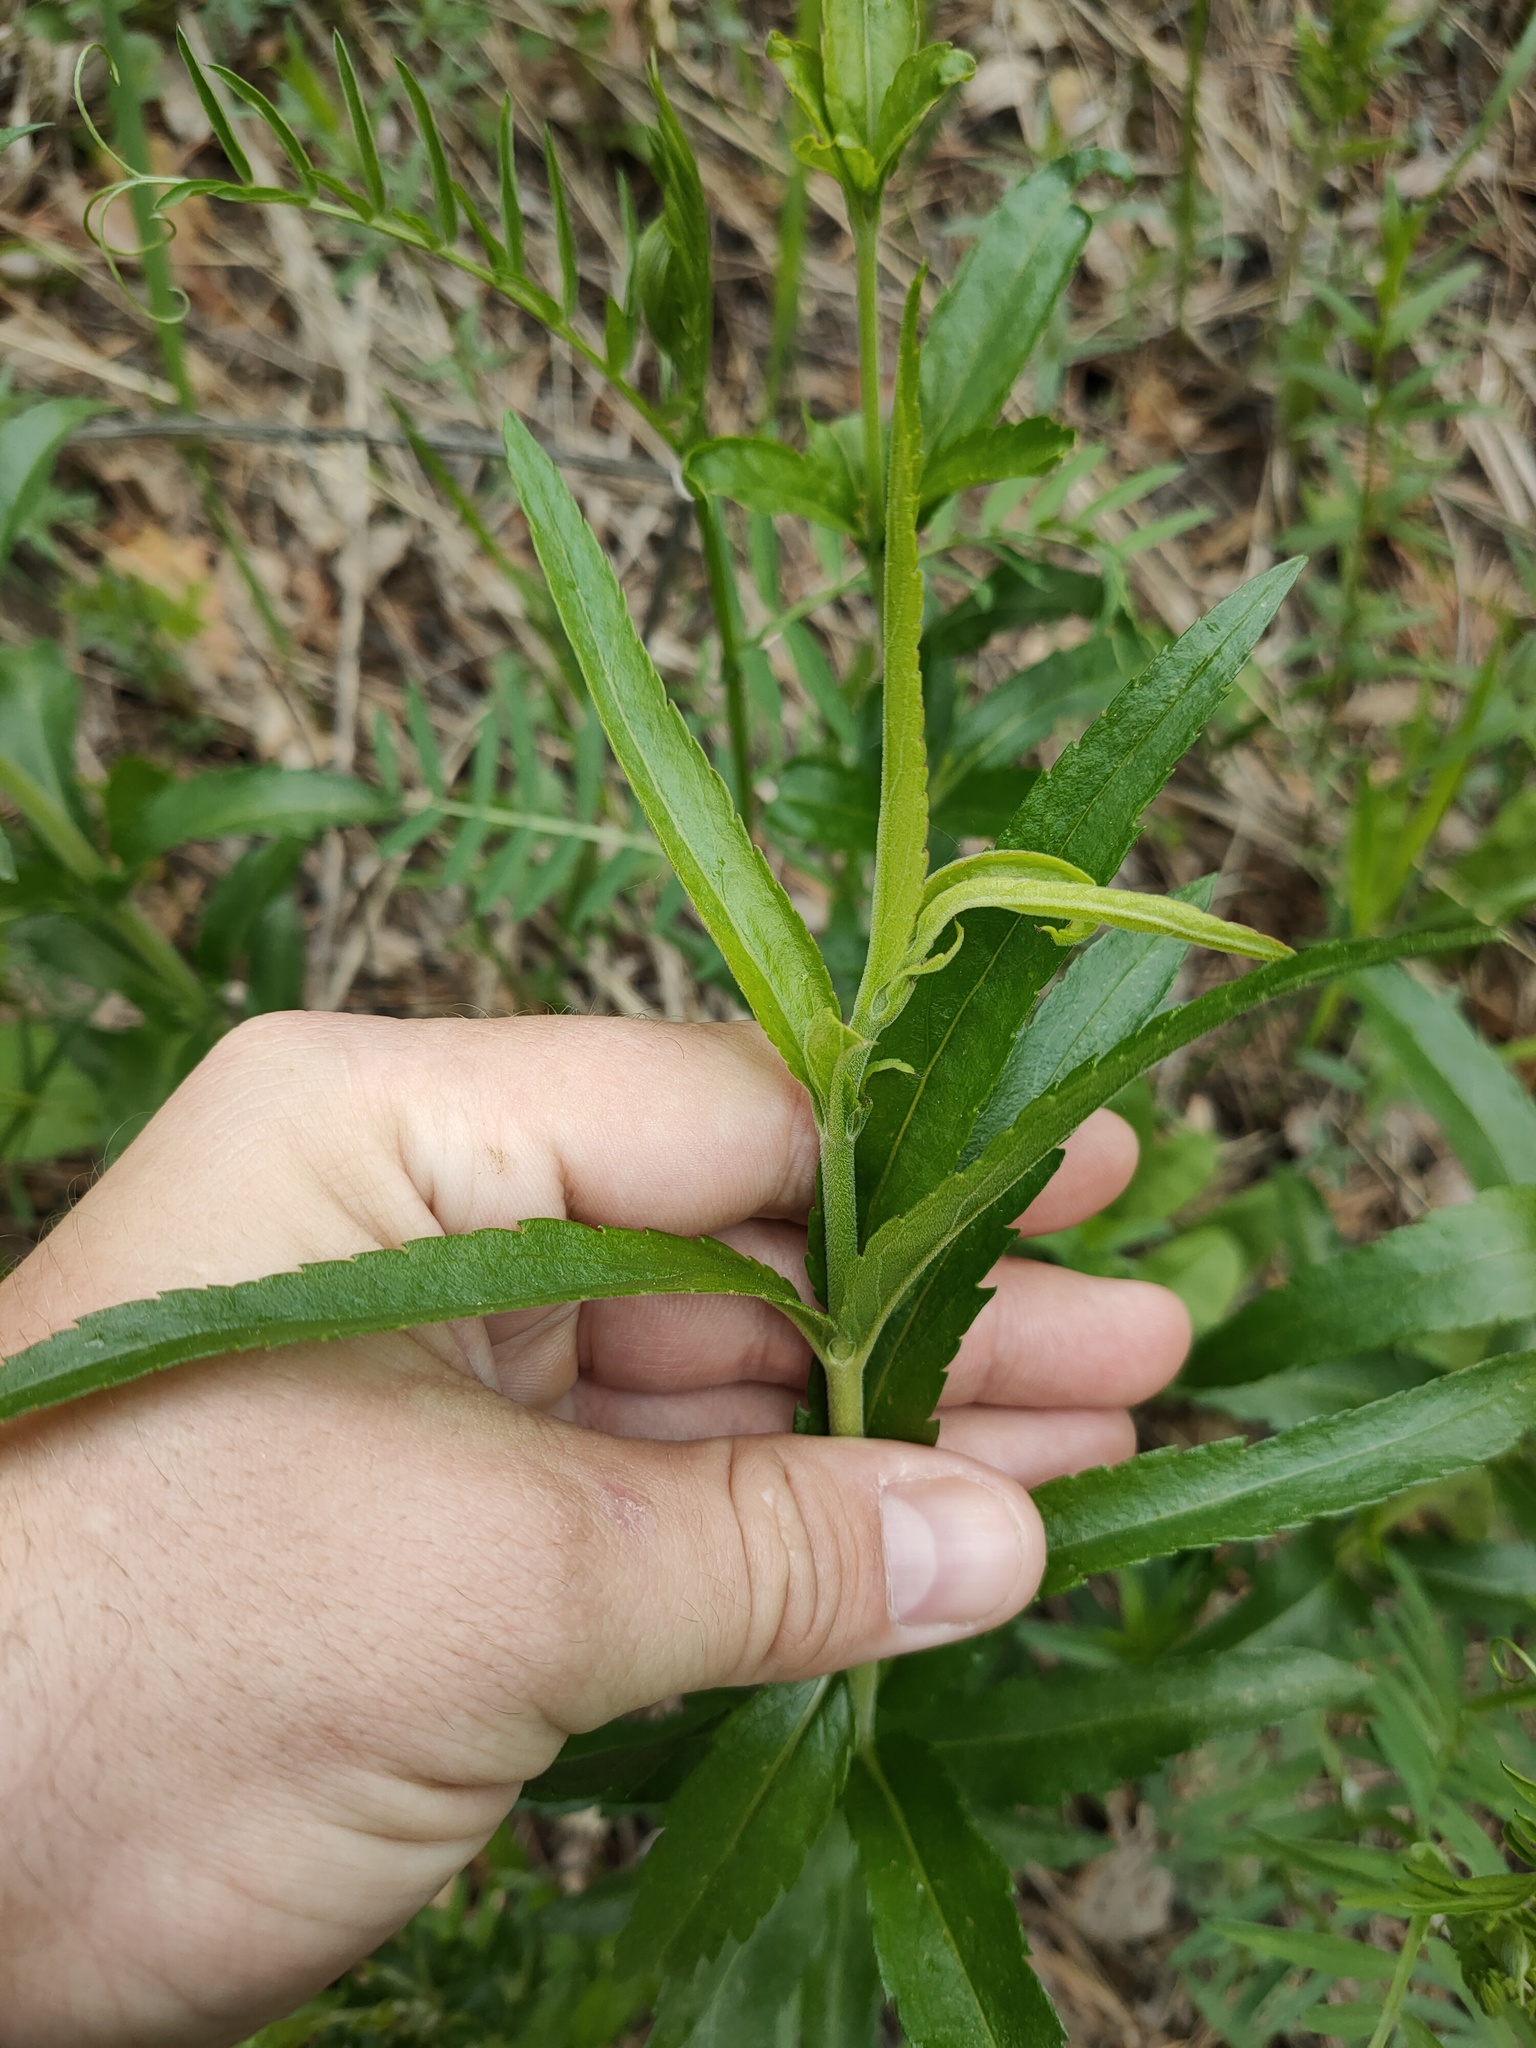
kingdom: Plantae
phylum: Tracheophyta
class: Magnoliopsida
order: Lamiales
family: Plantaginaceae
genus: Veronica
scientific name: Veronica spuria
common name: Bastard speedwell
